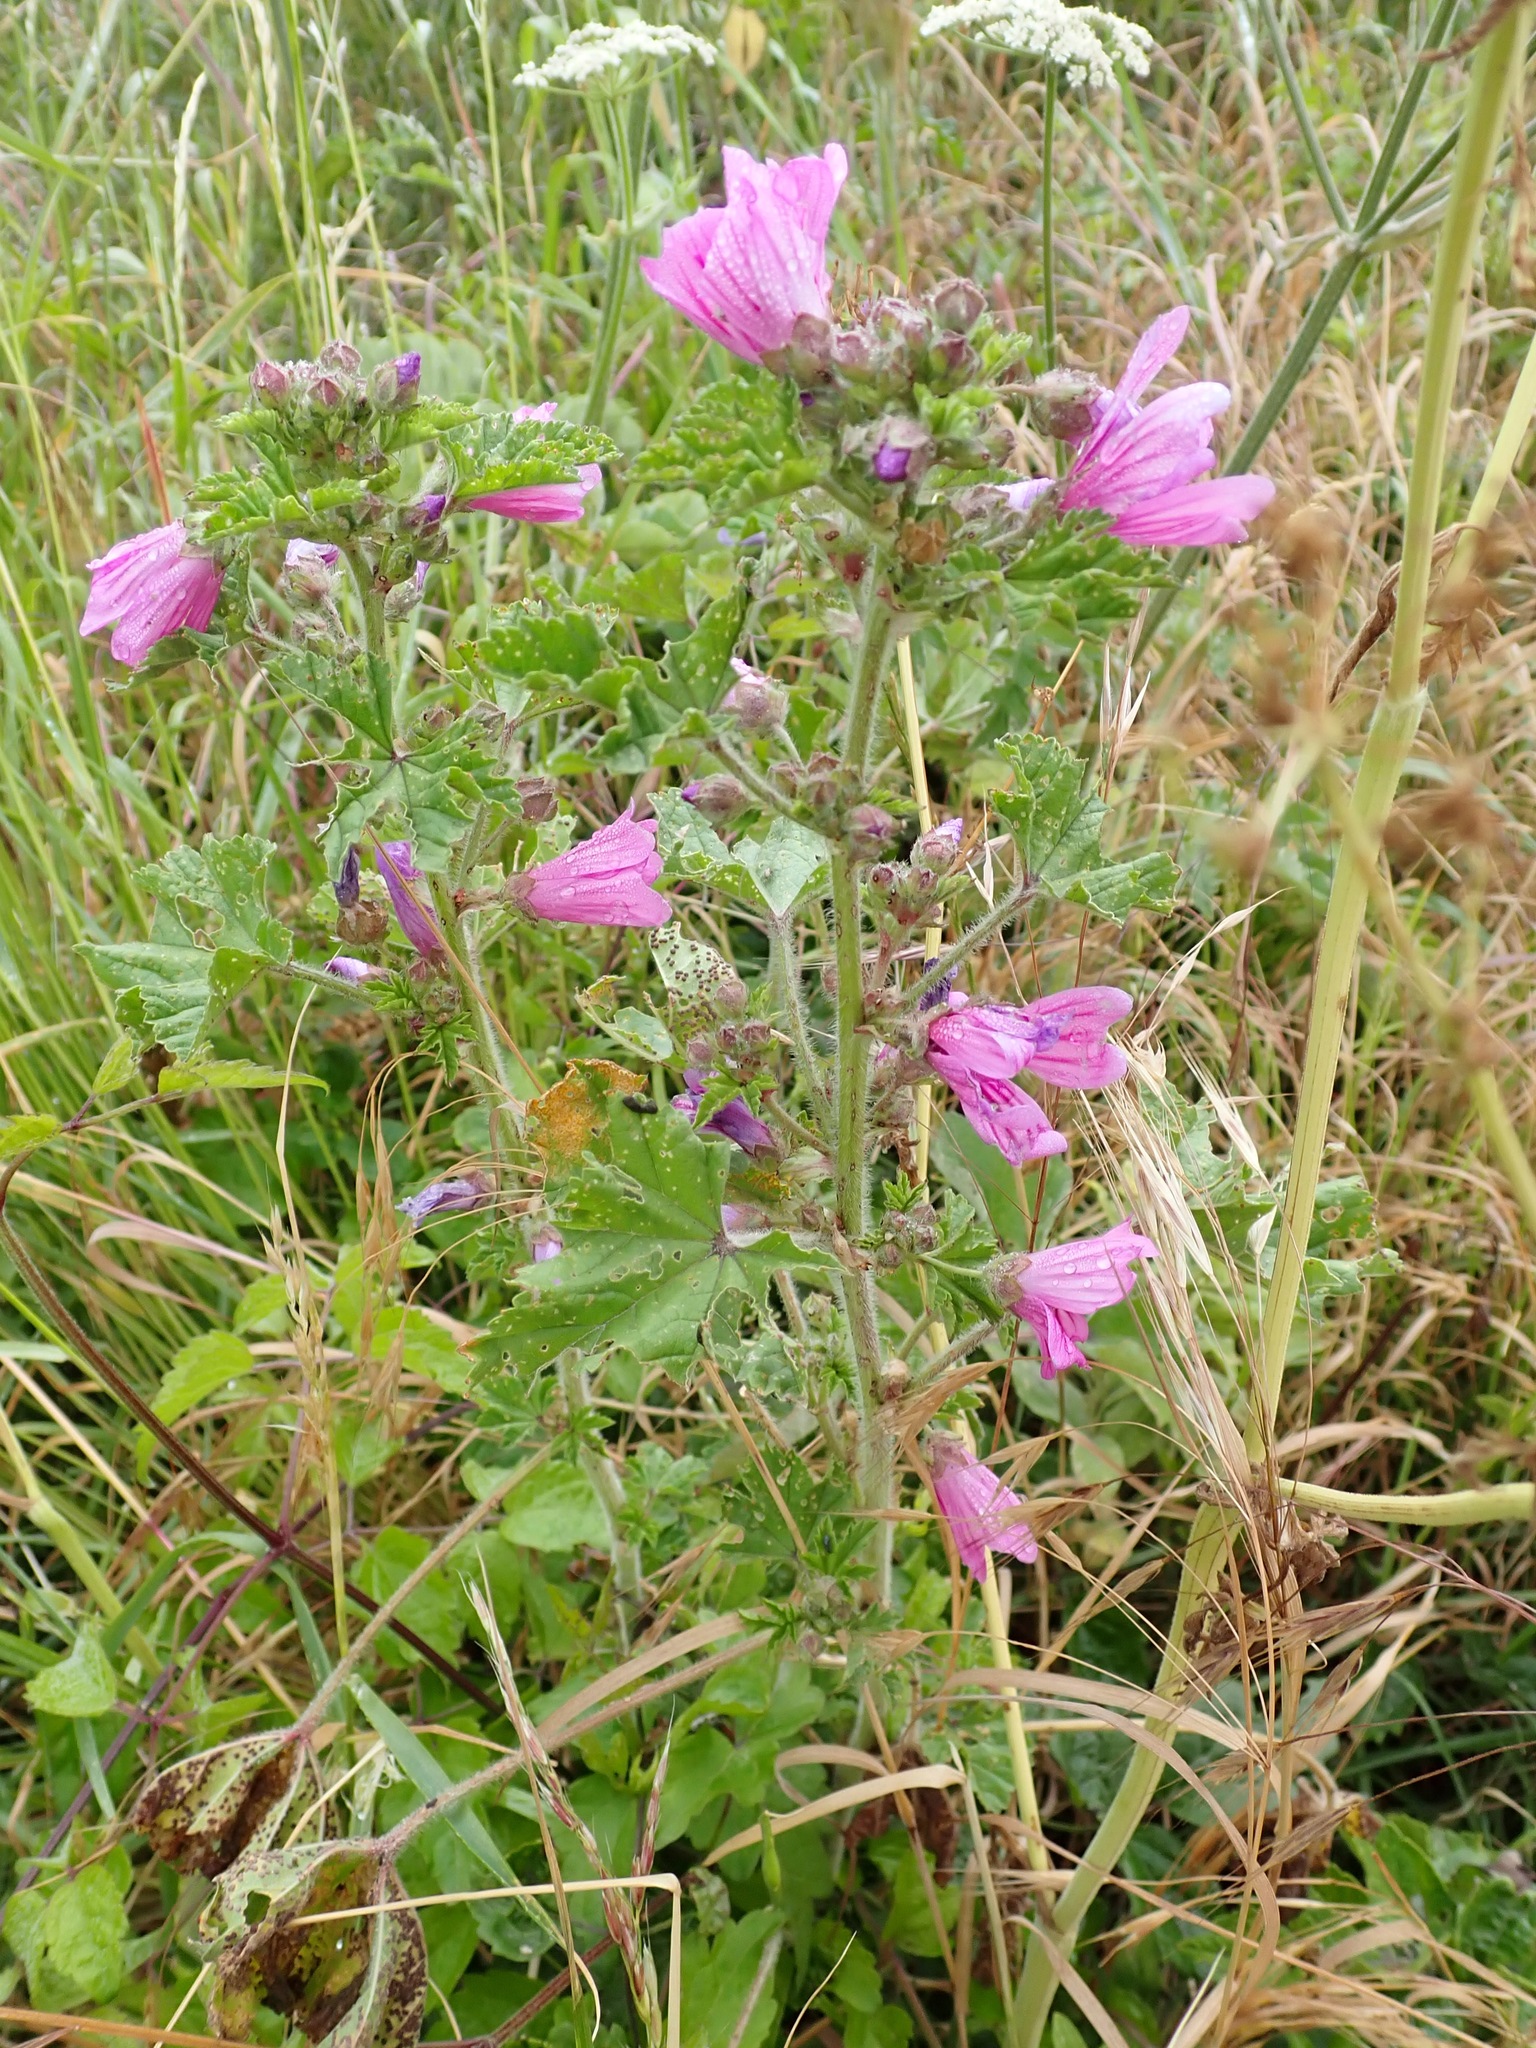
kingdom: Plantae
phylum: Tracheophyta
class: Magnoliopsida
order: Malvales
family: Malvaceae
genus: Malva
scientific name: Malva sylvestris
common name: Common mallow
